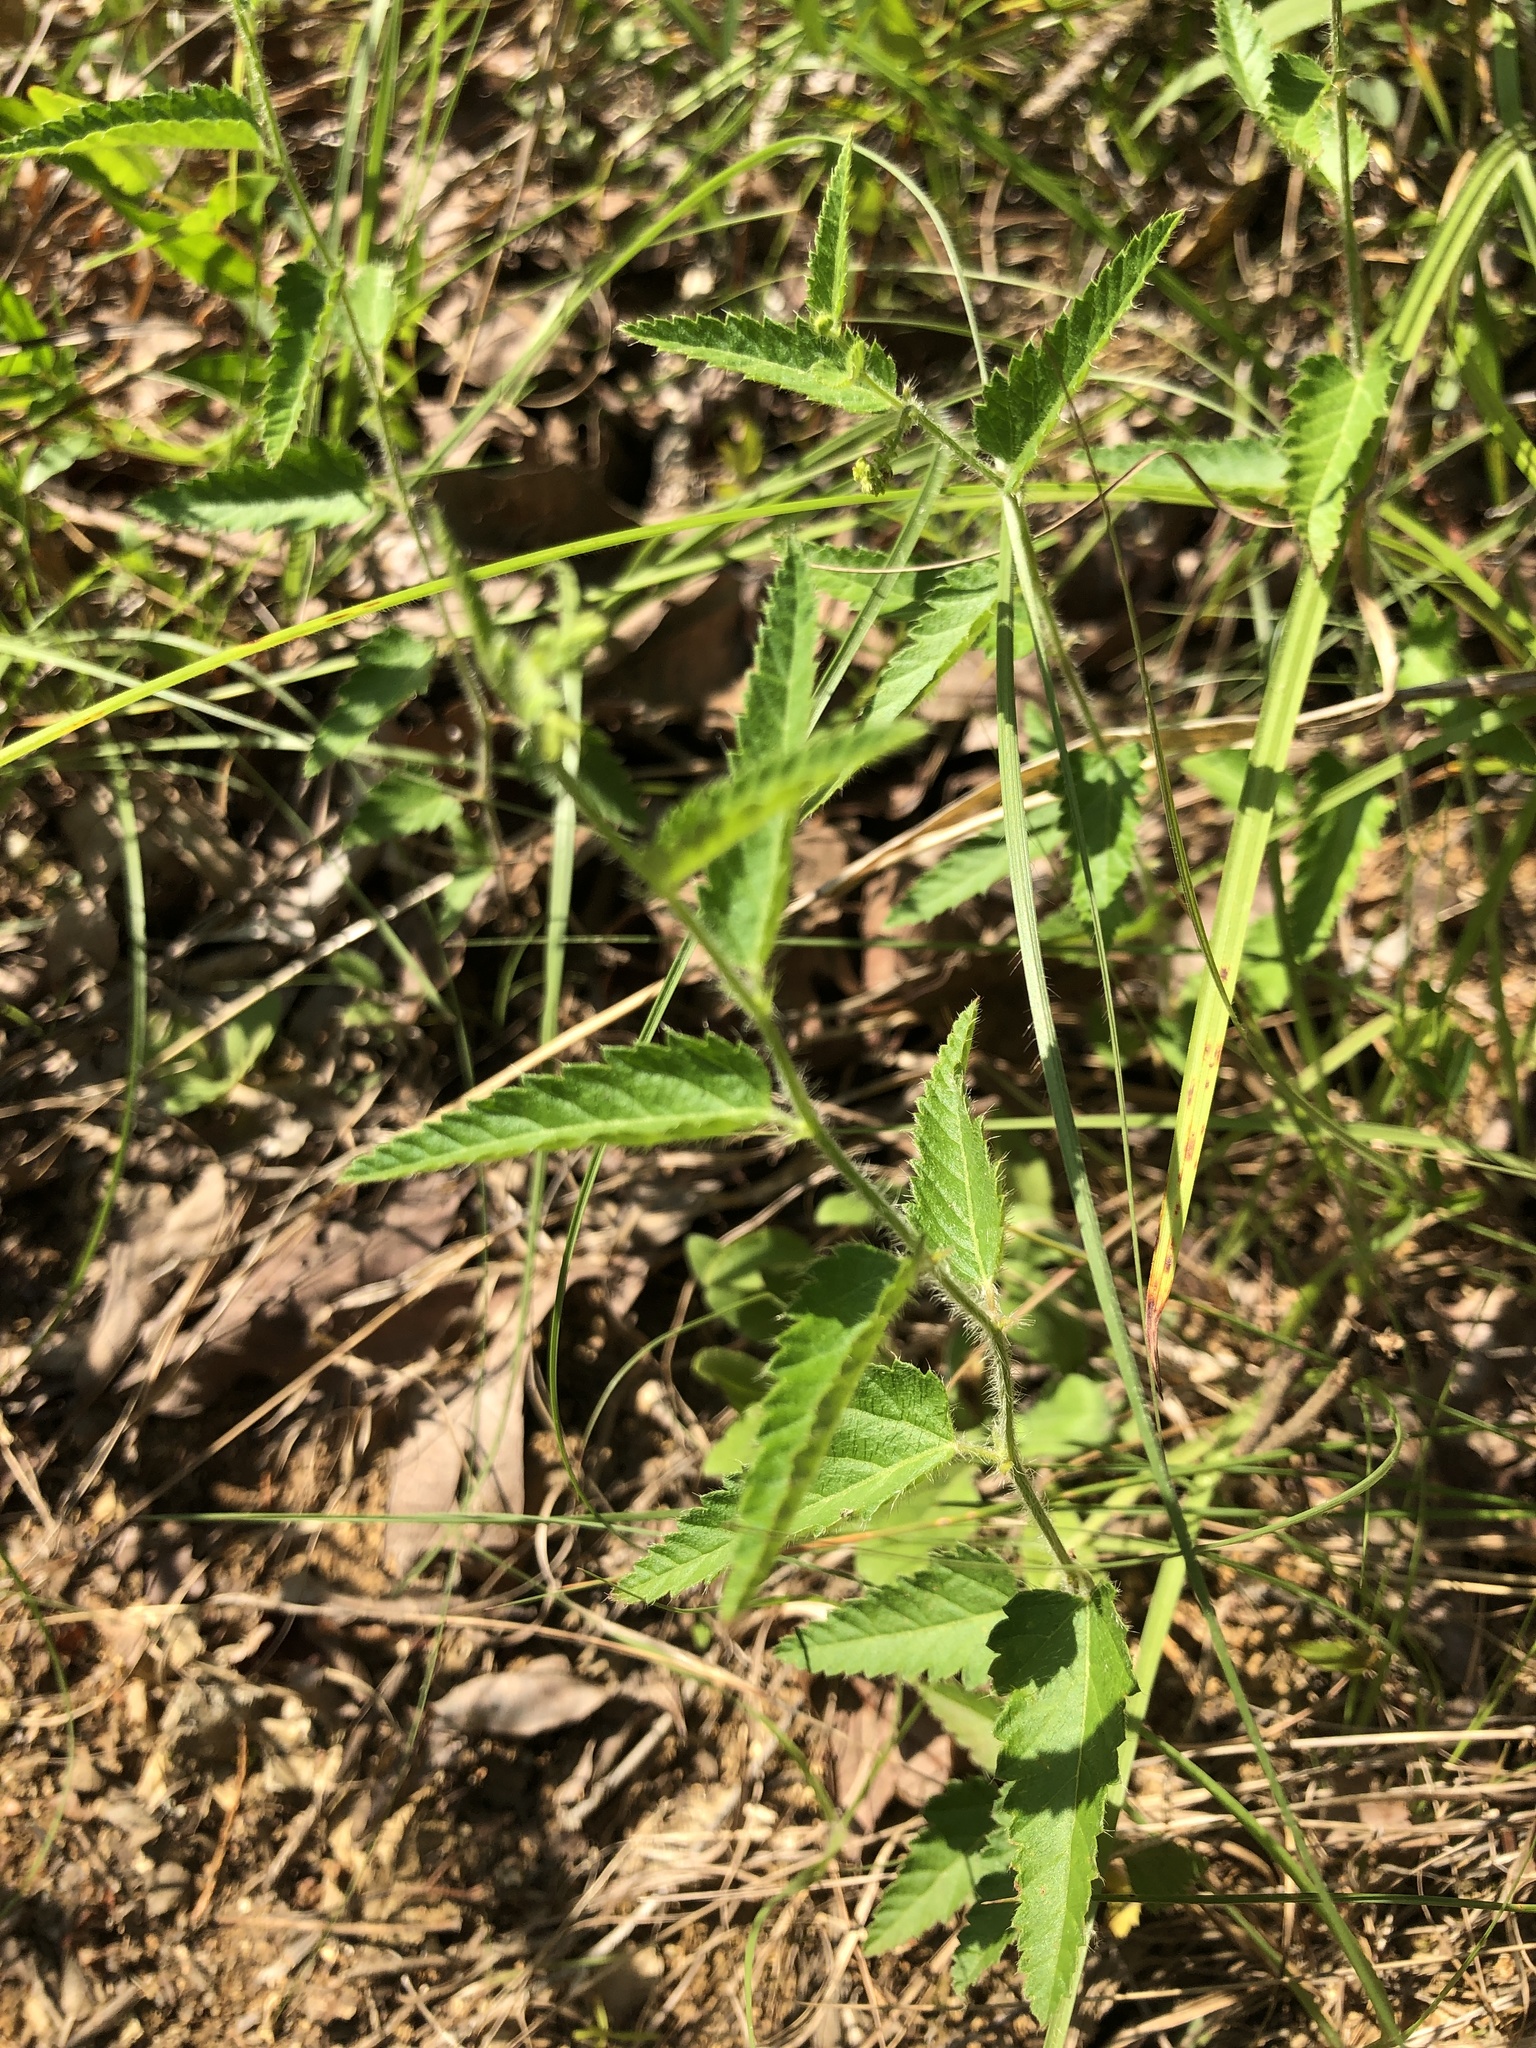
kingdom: Plantae
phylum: Tracheophyta
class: Magnoliopsida
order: Malpighiales
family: Euphorbiaceae
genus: Tragia
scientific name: Tragia urticifolia
